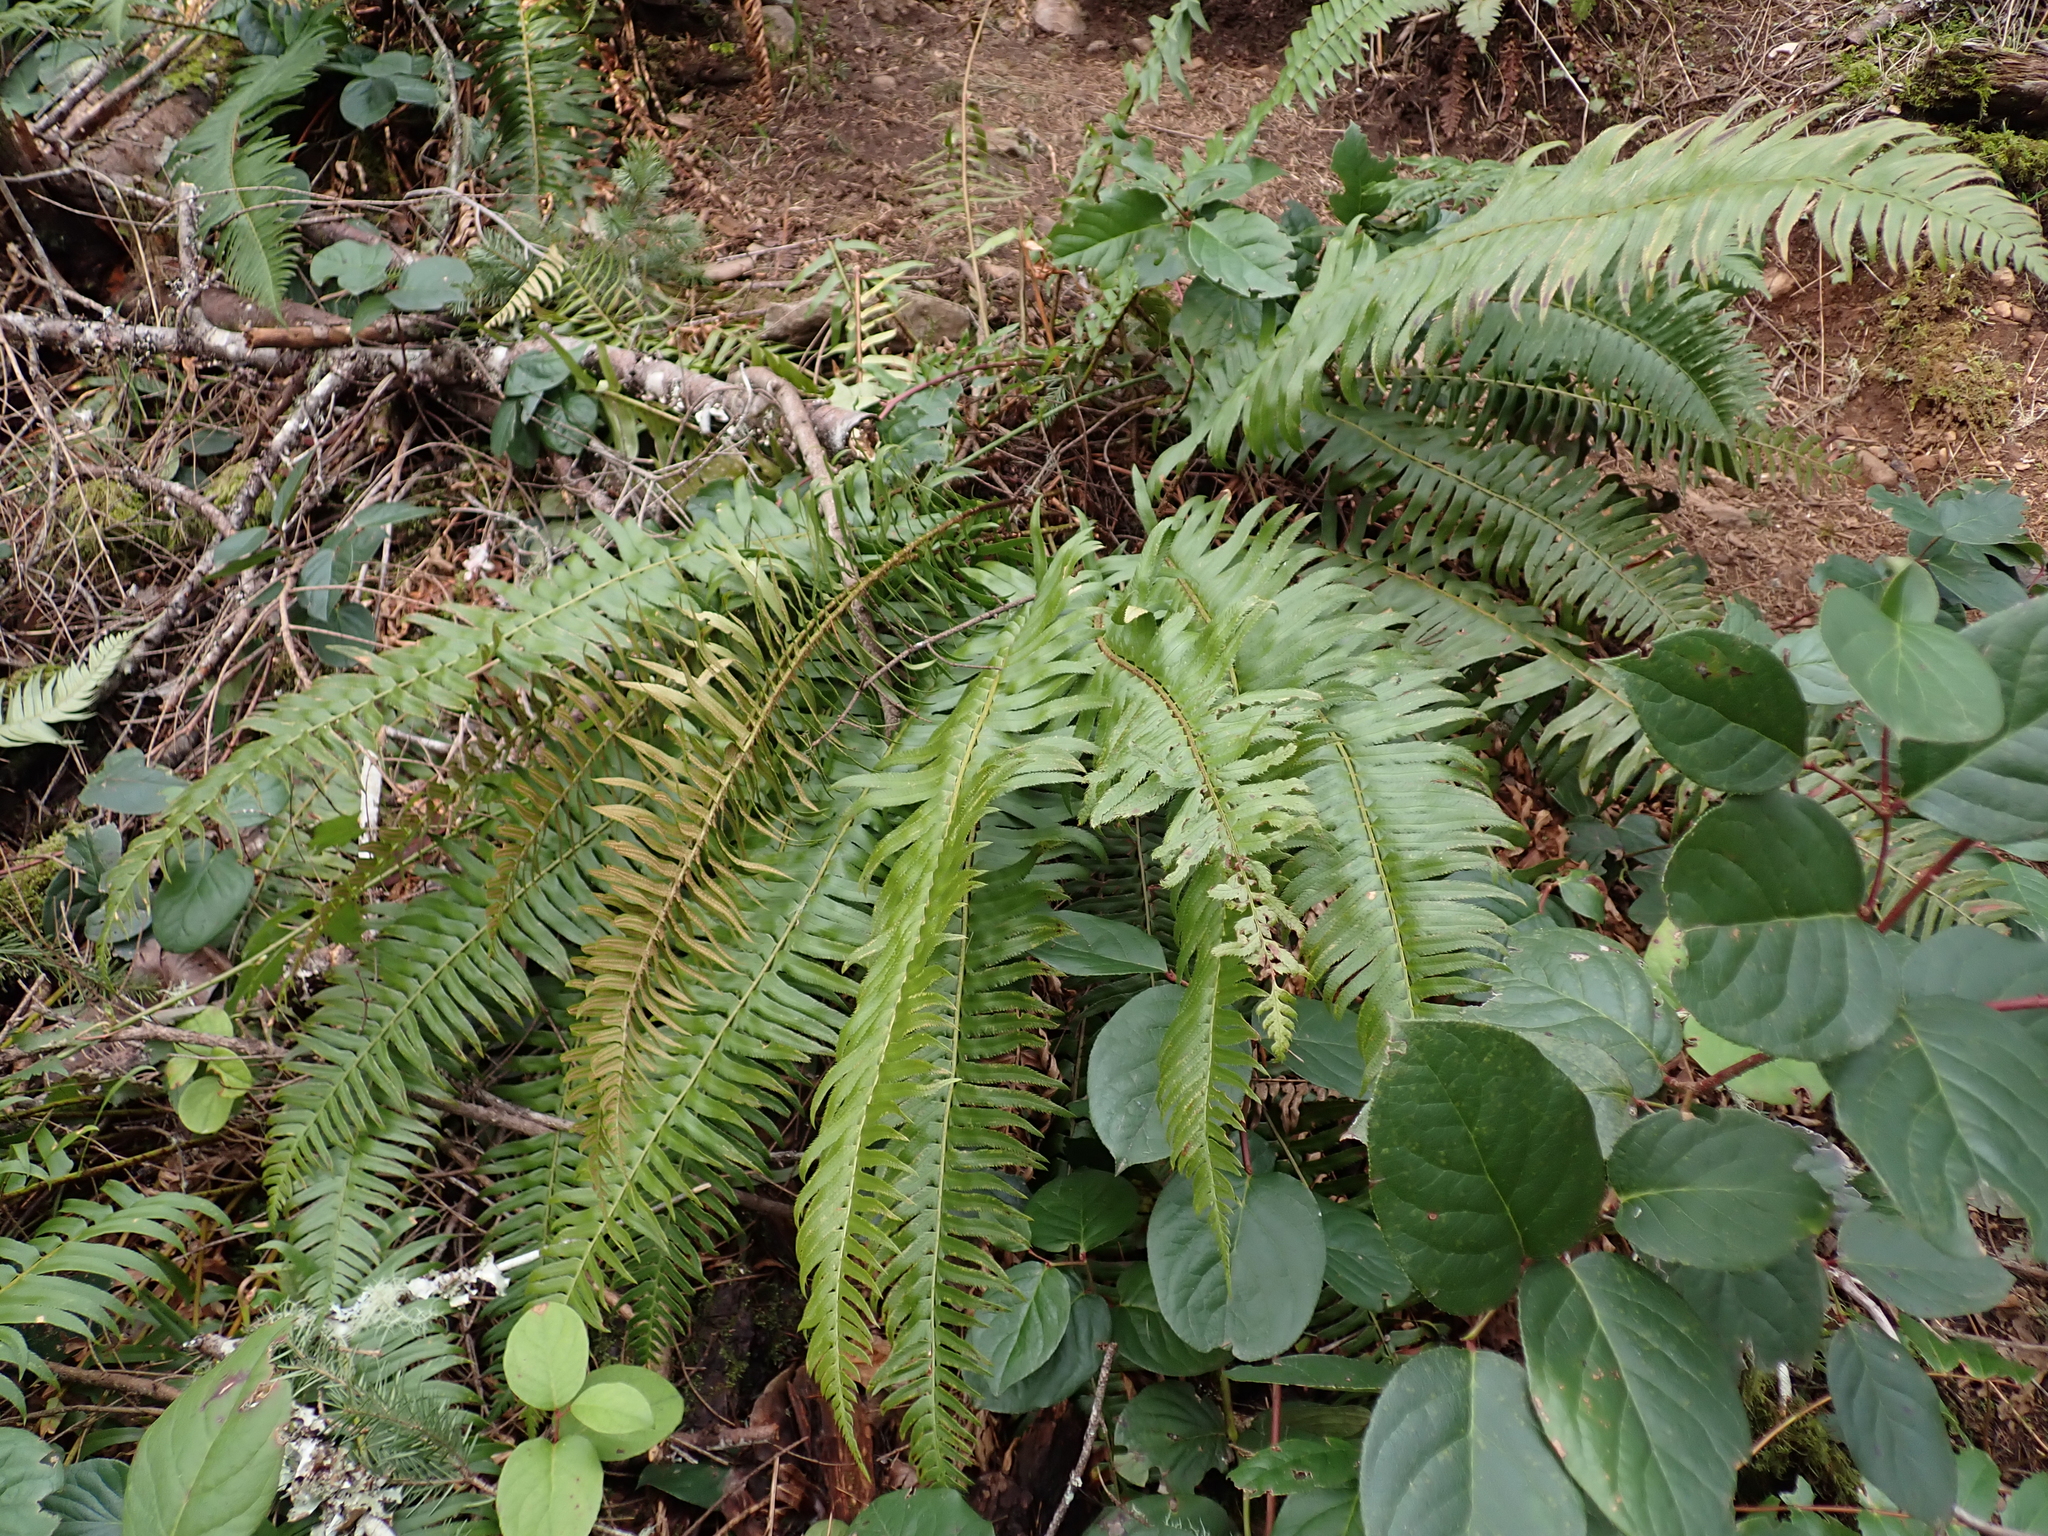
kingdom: Plantae
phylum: Tracheophyta
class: Polypodiopsida
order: Polypodiales
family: Dryopteridaceae
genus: Polystichum
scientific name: Polystichum munitum
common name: Western sword-fern
